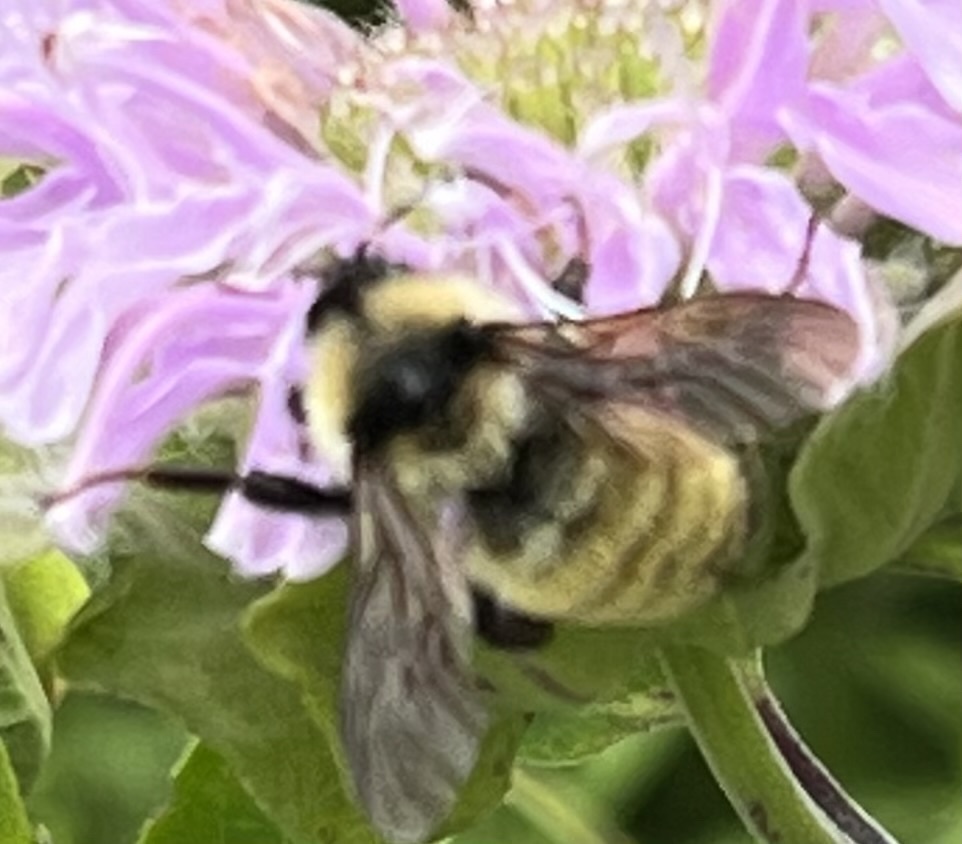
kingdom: Animalia
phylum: Arthropoda
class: Insecta
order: Hymenoptera
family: Apidae
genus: Bombus
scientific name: Bombus fervidus
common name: Yellow bumble bee
